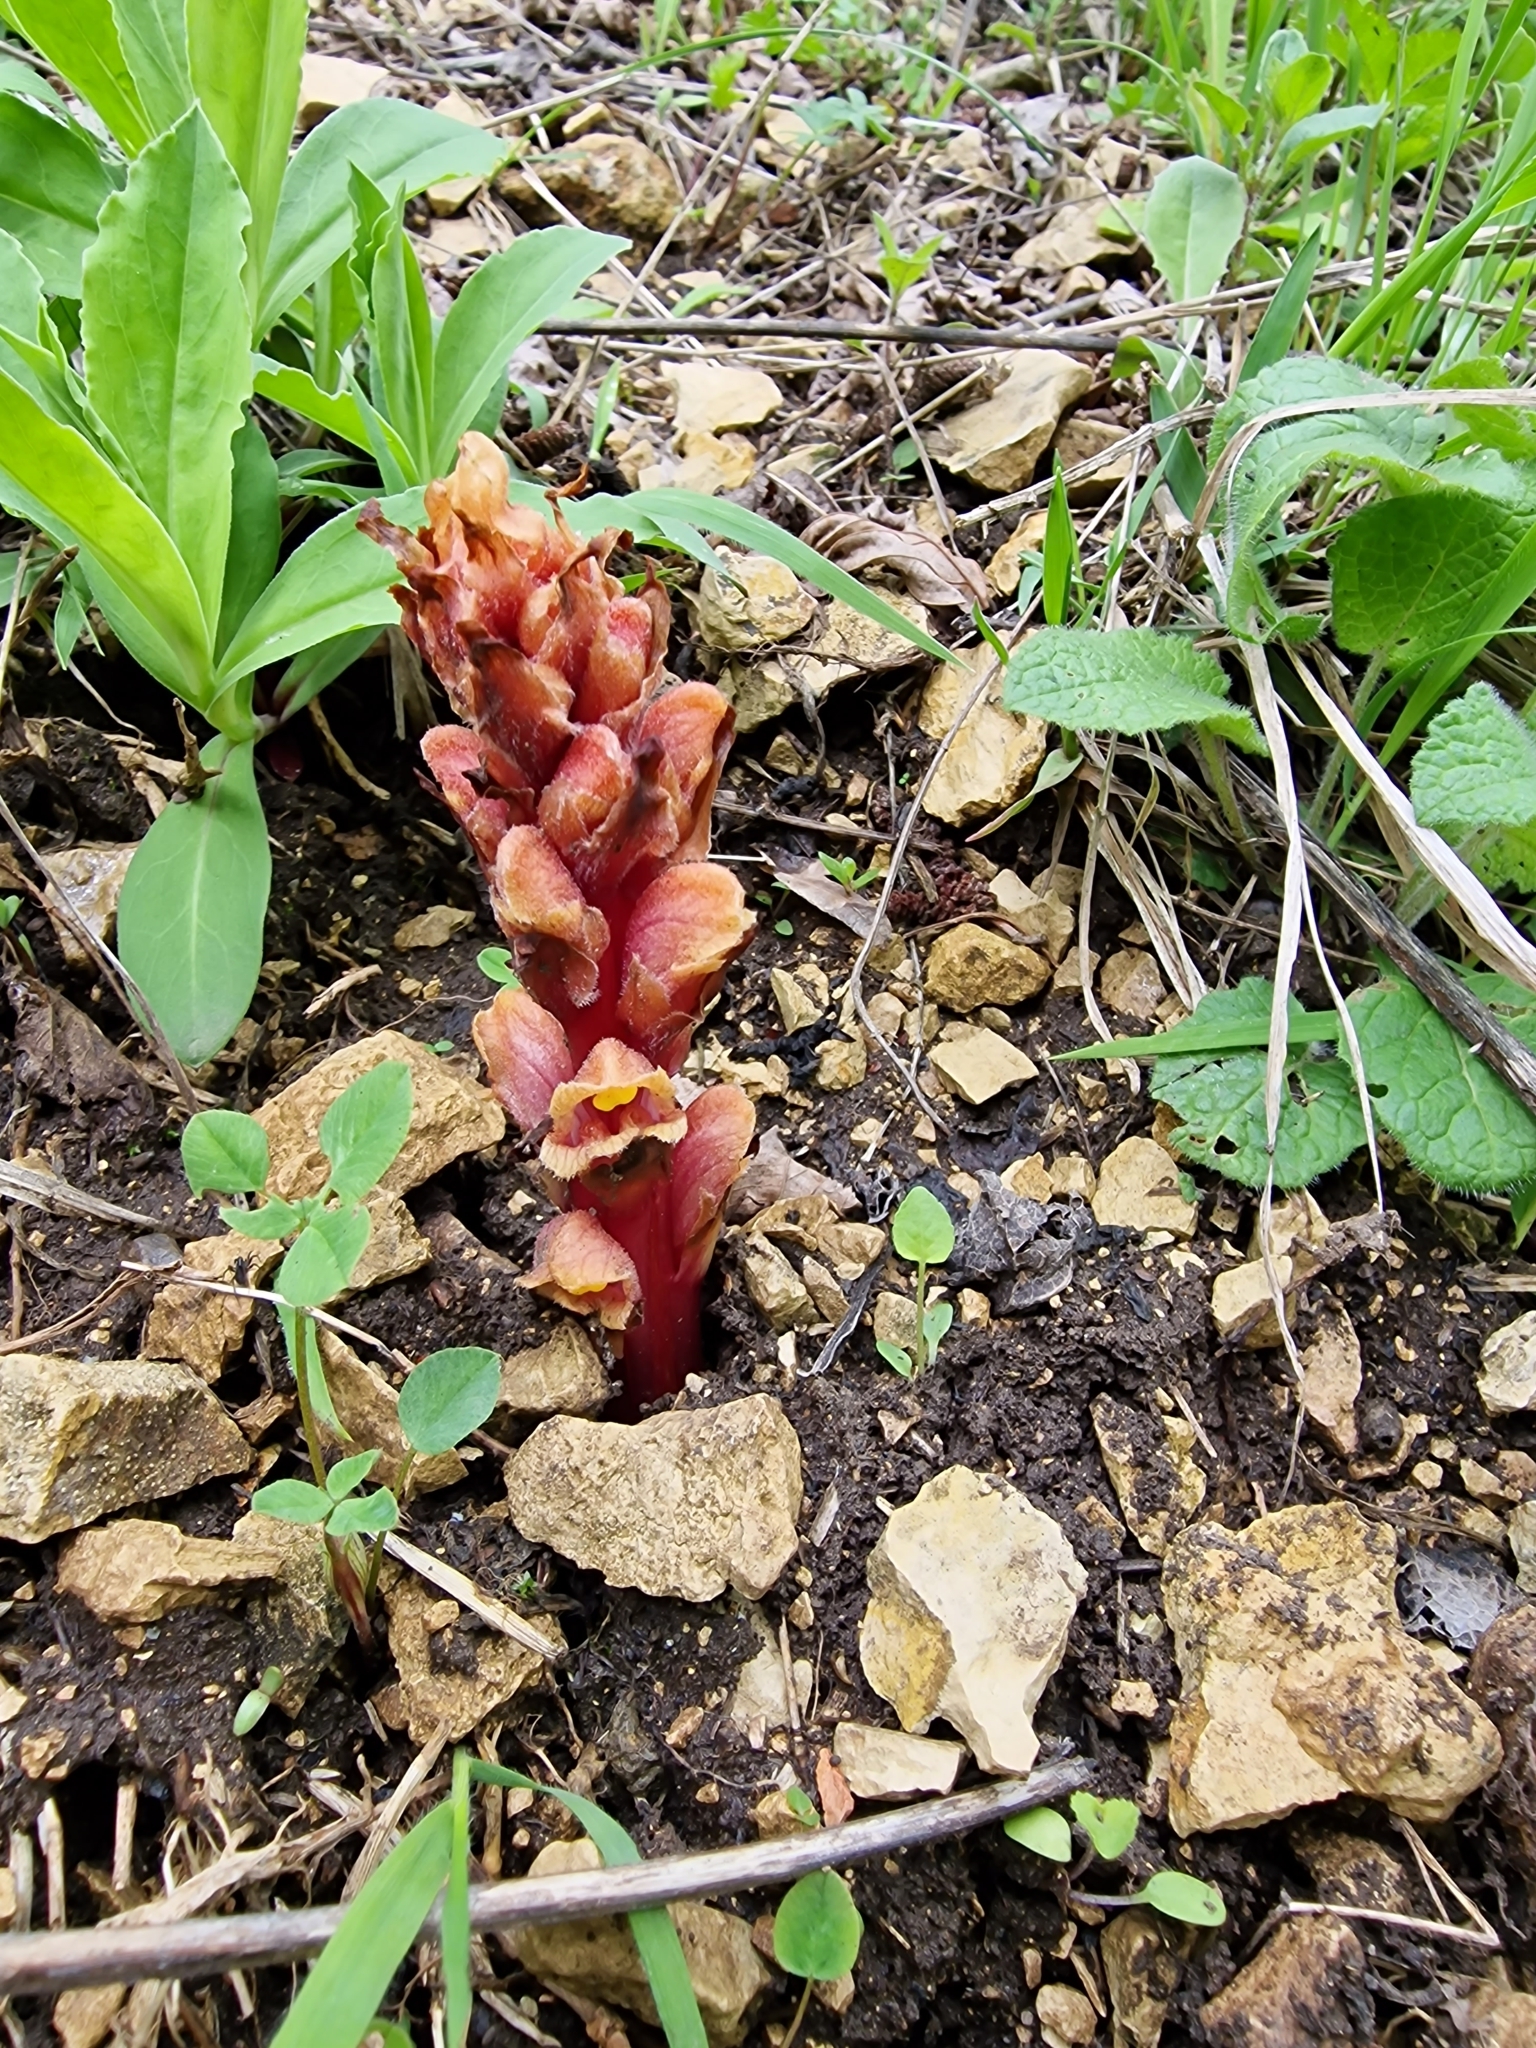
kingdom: Plantae
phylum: Tracheophyta
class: Magnoliopsida
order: Lamiales
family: Orobanchaceae
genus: Orobanche
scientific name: Orobanche colorata
